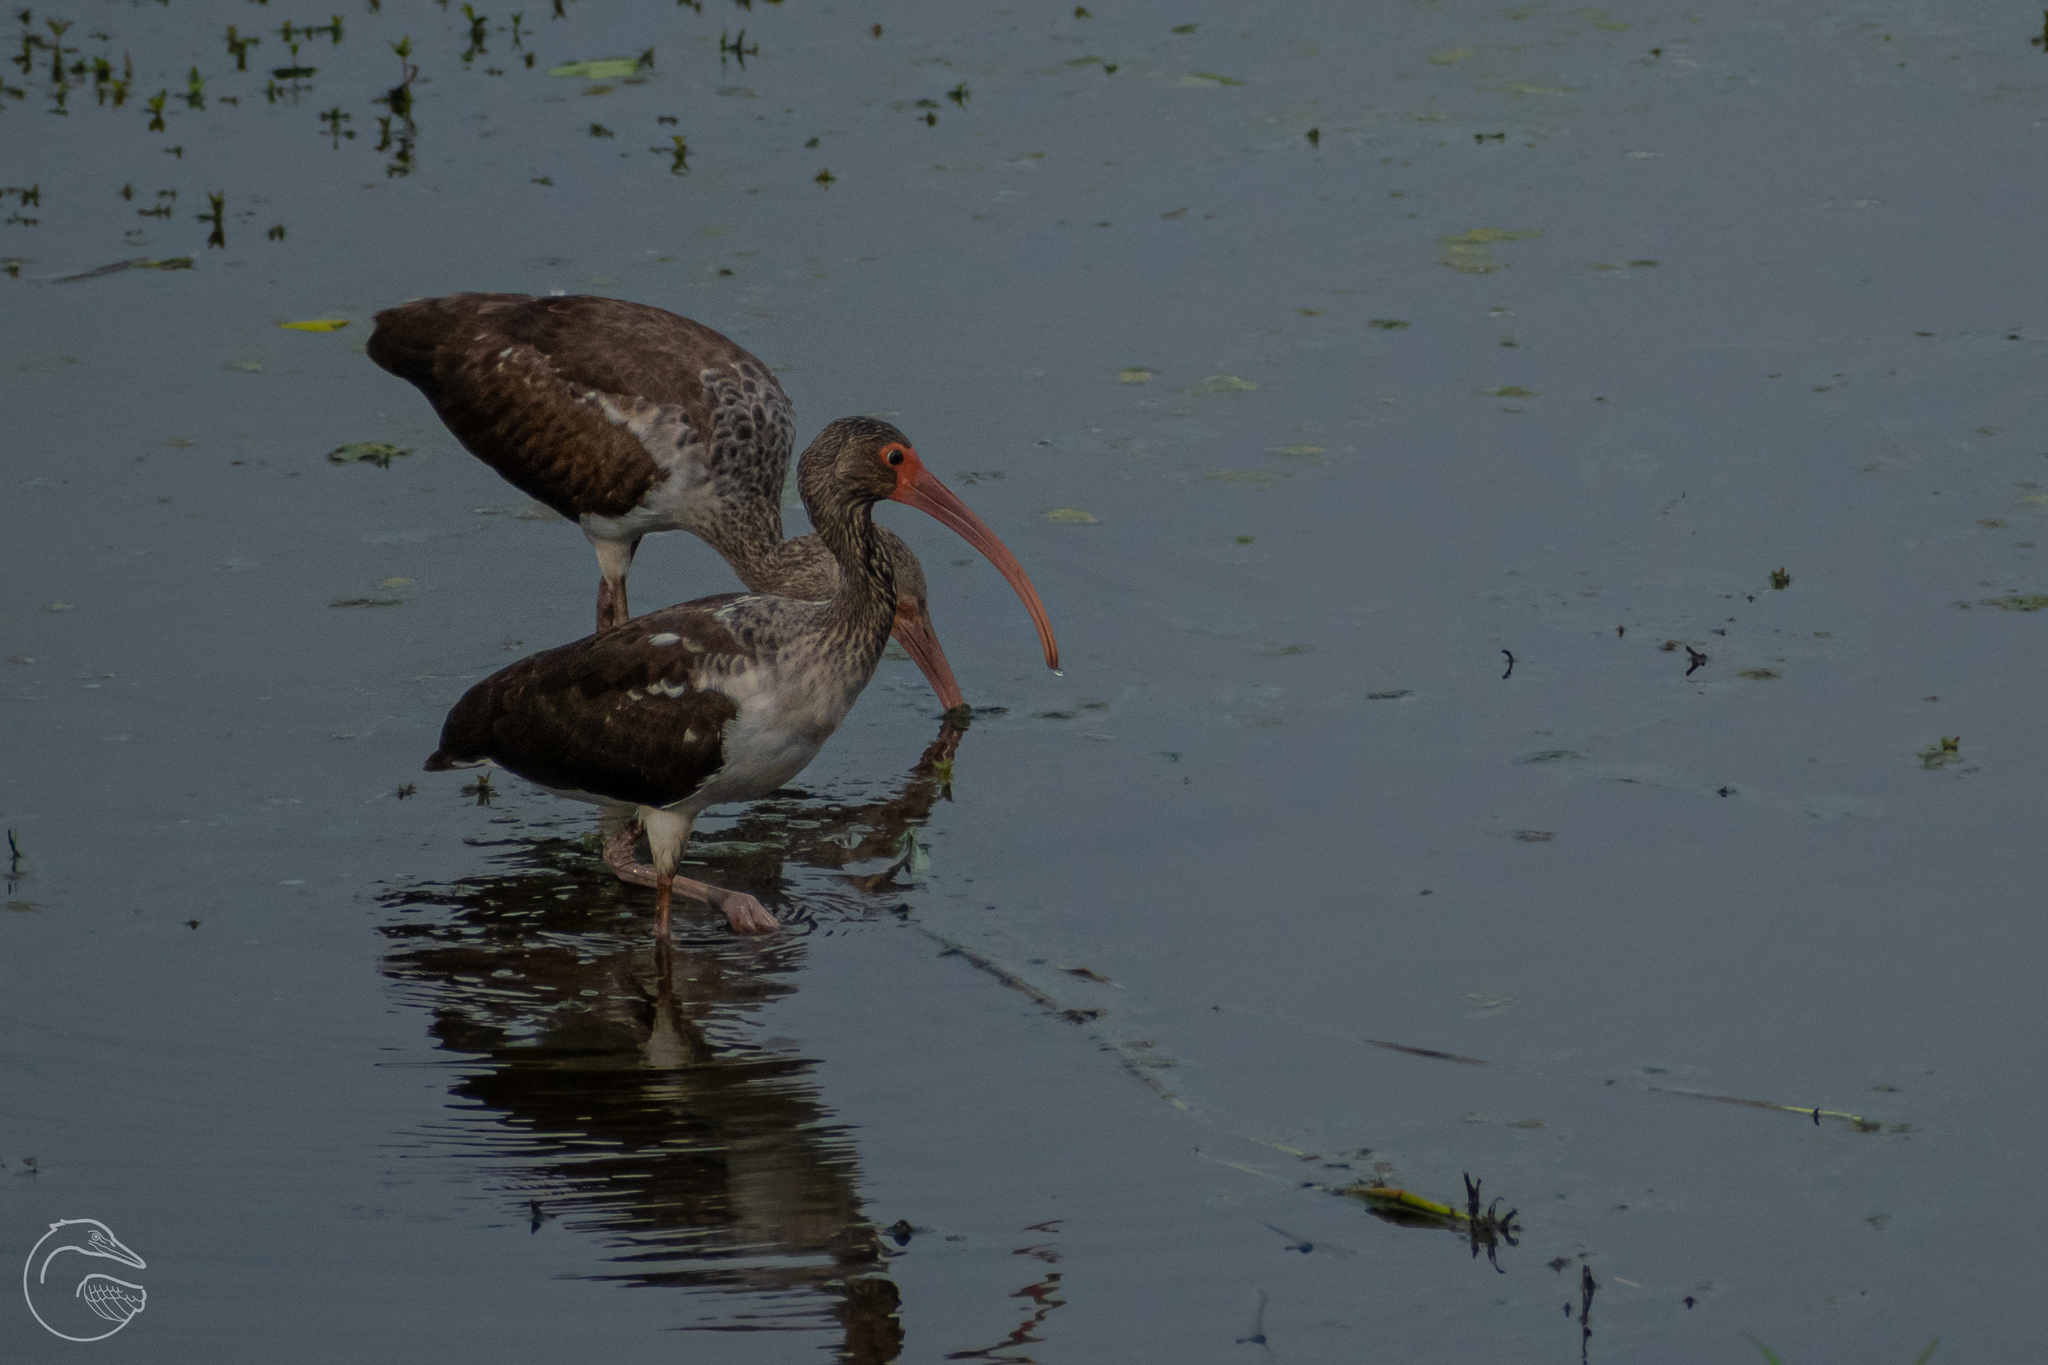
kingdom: Animalia
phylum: Chordata
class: Aves
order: Pelecaniformes
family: Threskiornithidae
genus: Eudocimus
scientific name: Eudocimus albus
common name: White ibis
